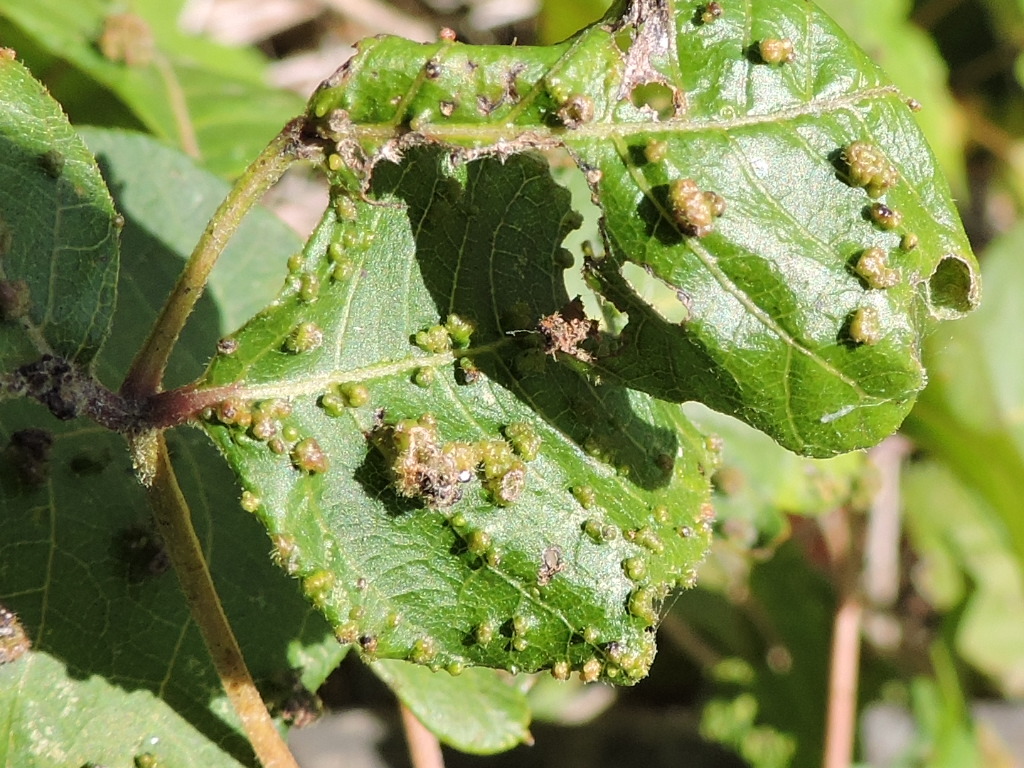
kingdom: Animalia
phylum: Arthropoda
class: Arachnida
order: Trombidiformes
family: Eriophyidae
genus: Aculops
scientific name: Aculops
